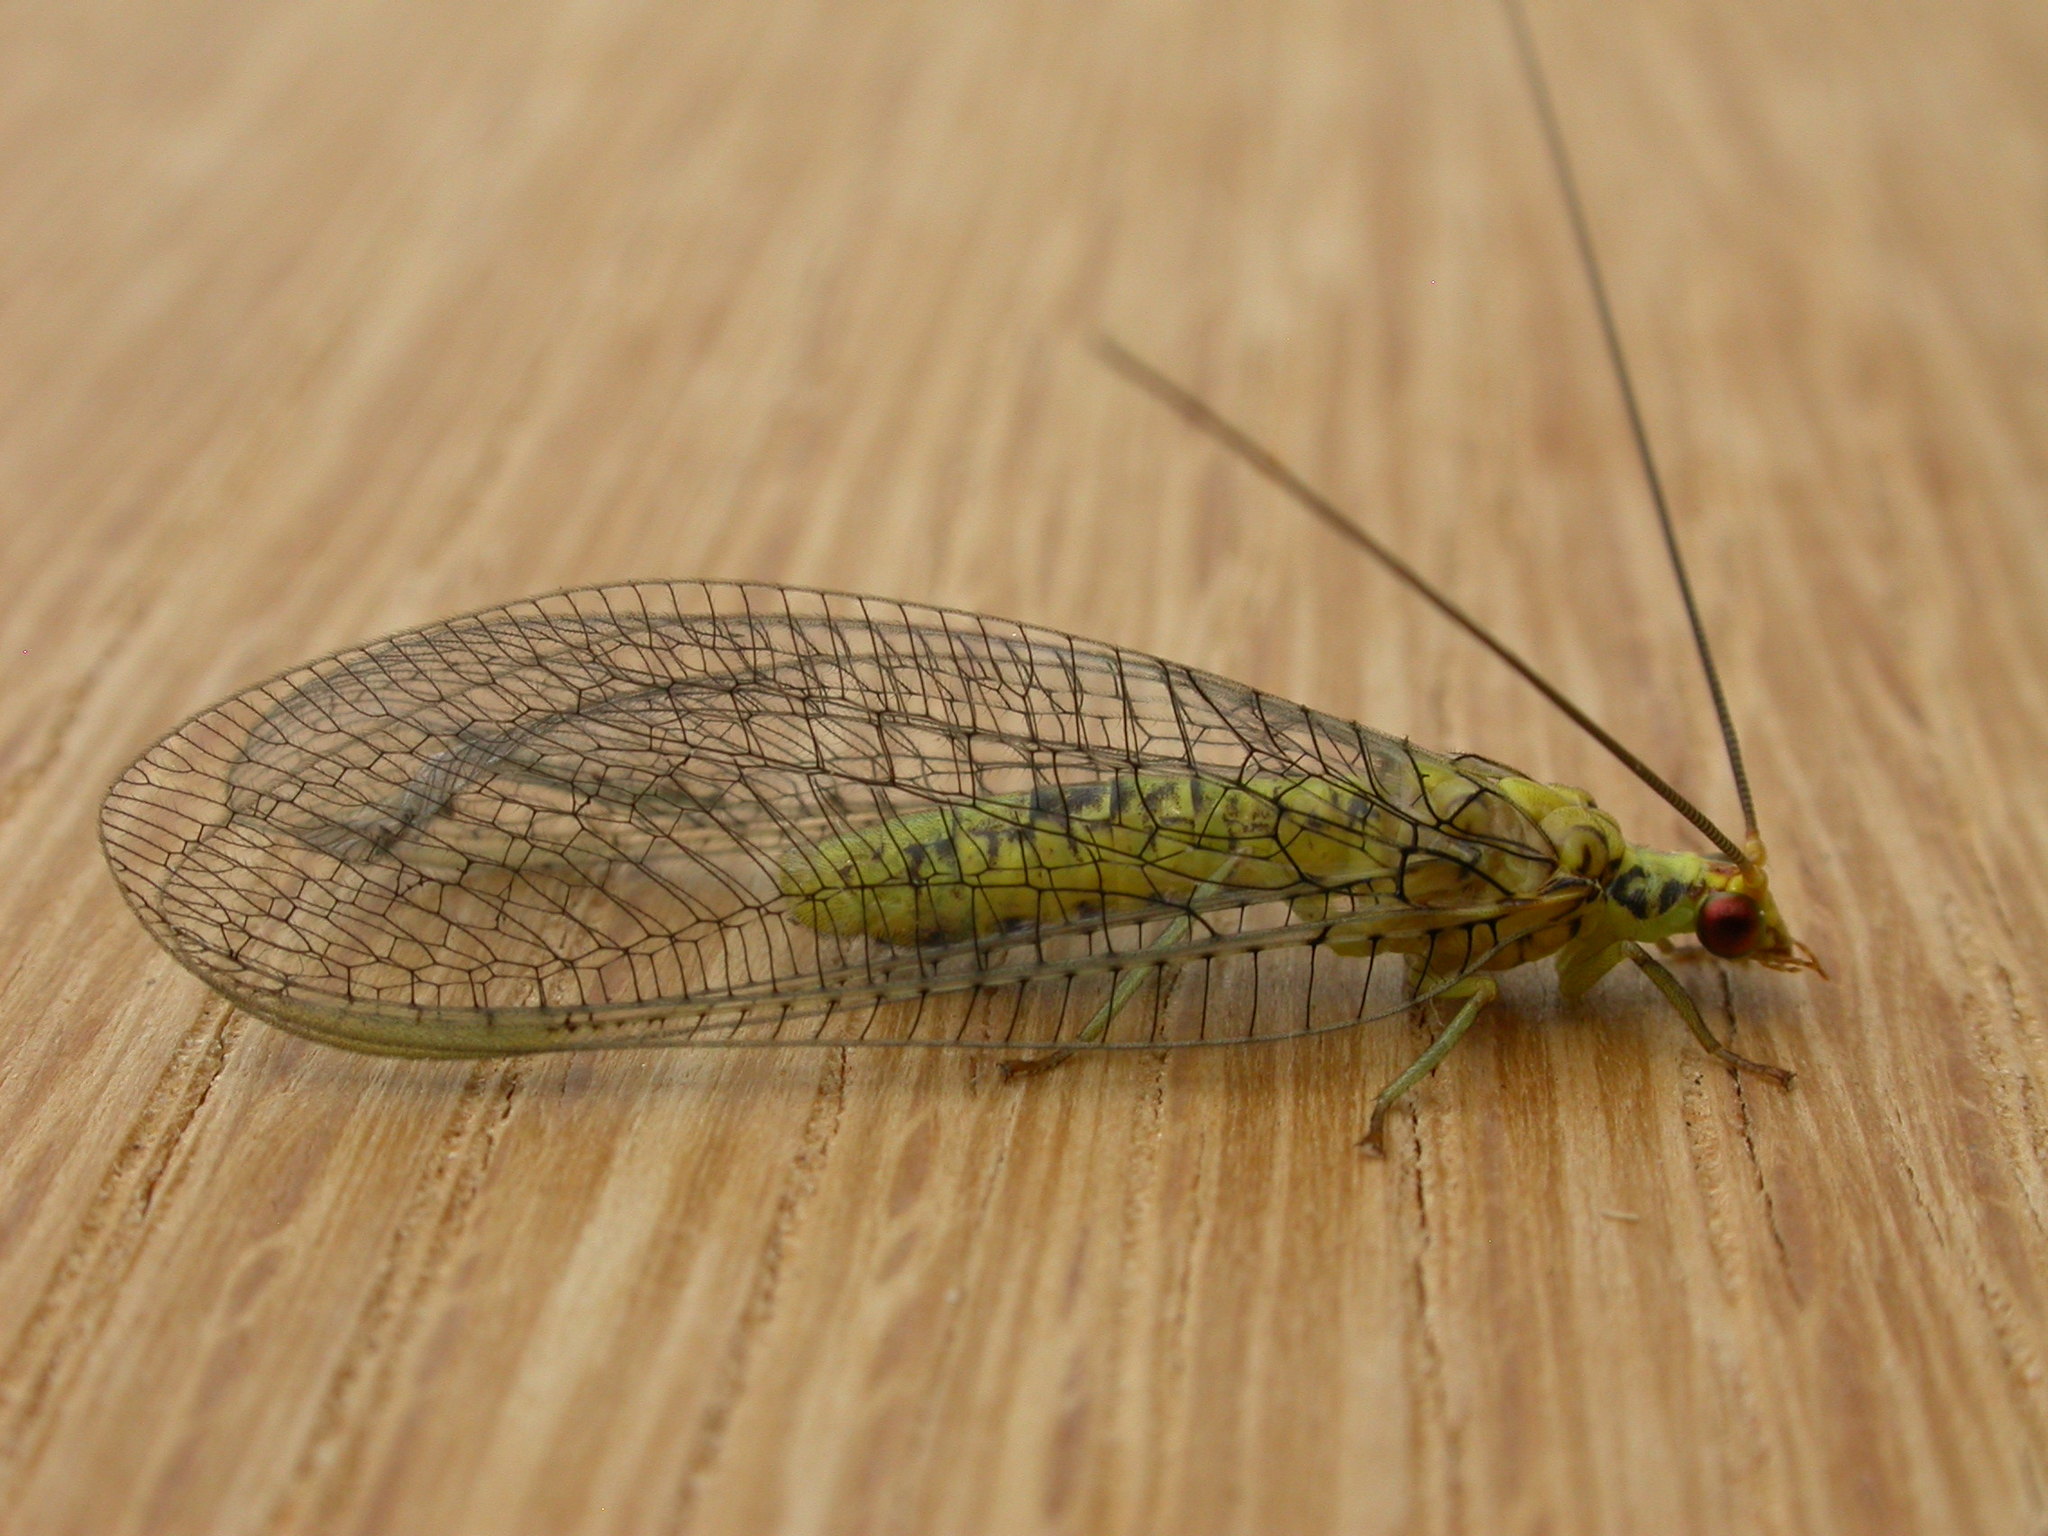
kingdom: Animalia
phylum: Arthropoda
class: Insecta
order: Neuroptera
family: Chrysopidae
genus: Italochrysa
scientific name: Italochrysa insignis
